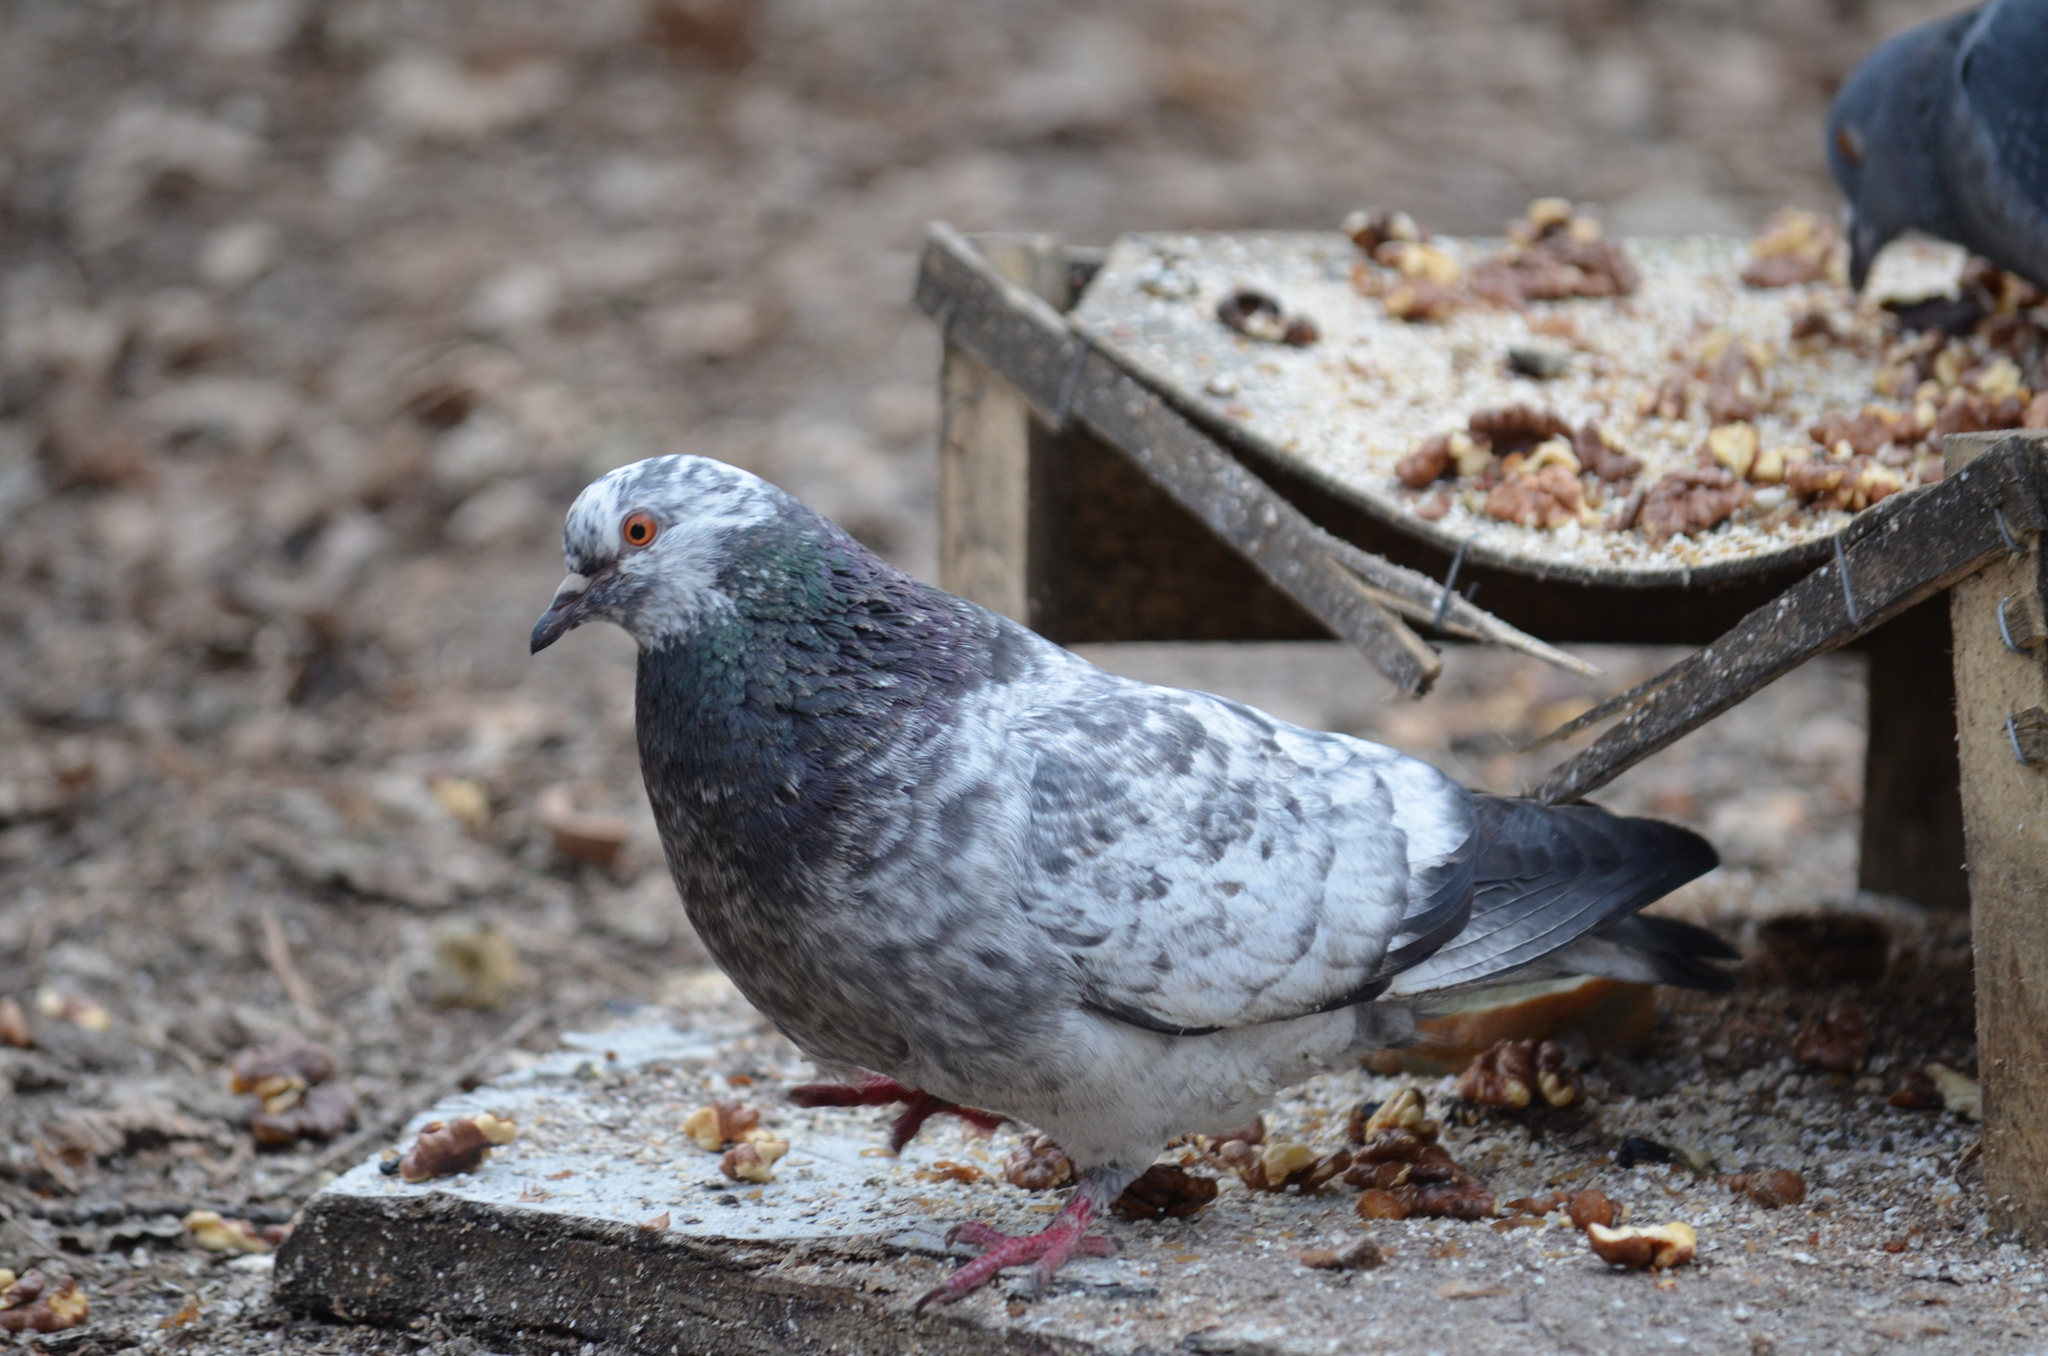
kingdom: Animalia
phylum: Chordata
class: Aves
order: Columbiformes
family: Columbidae
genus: Columba
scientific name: Columba livia
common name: Rock pigeon
